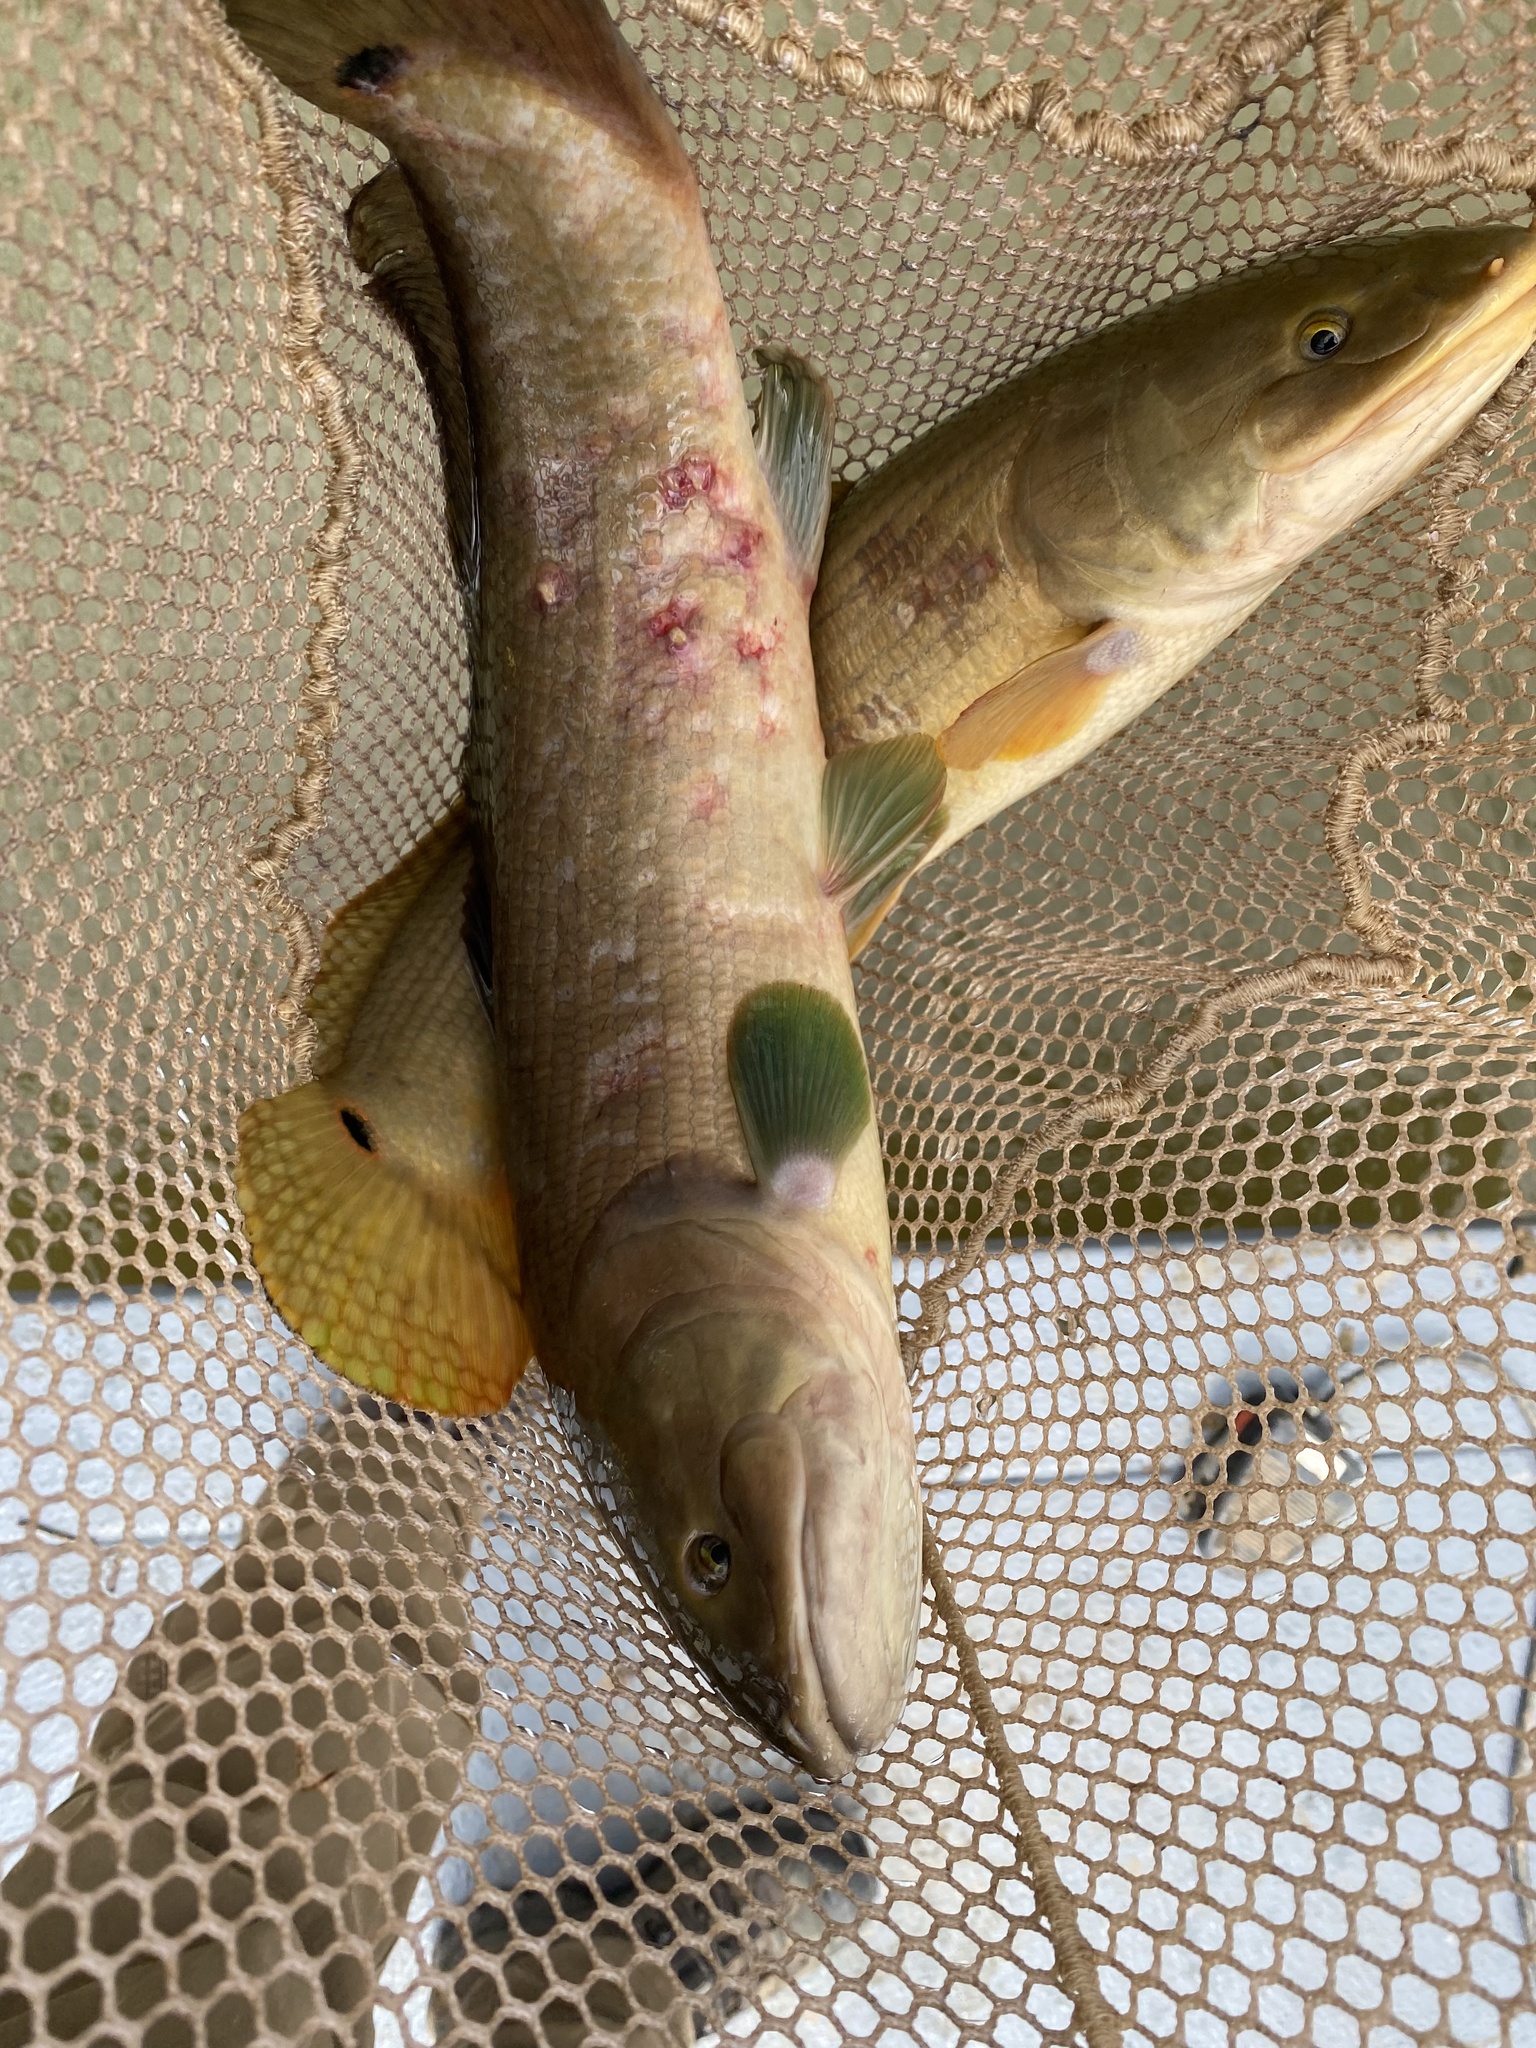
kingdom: Animalia
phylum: Chordata
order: Amiiformes
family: Amiidae
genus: Amia
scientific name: Amia calva
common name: Bowfin
